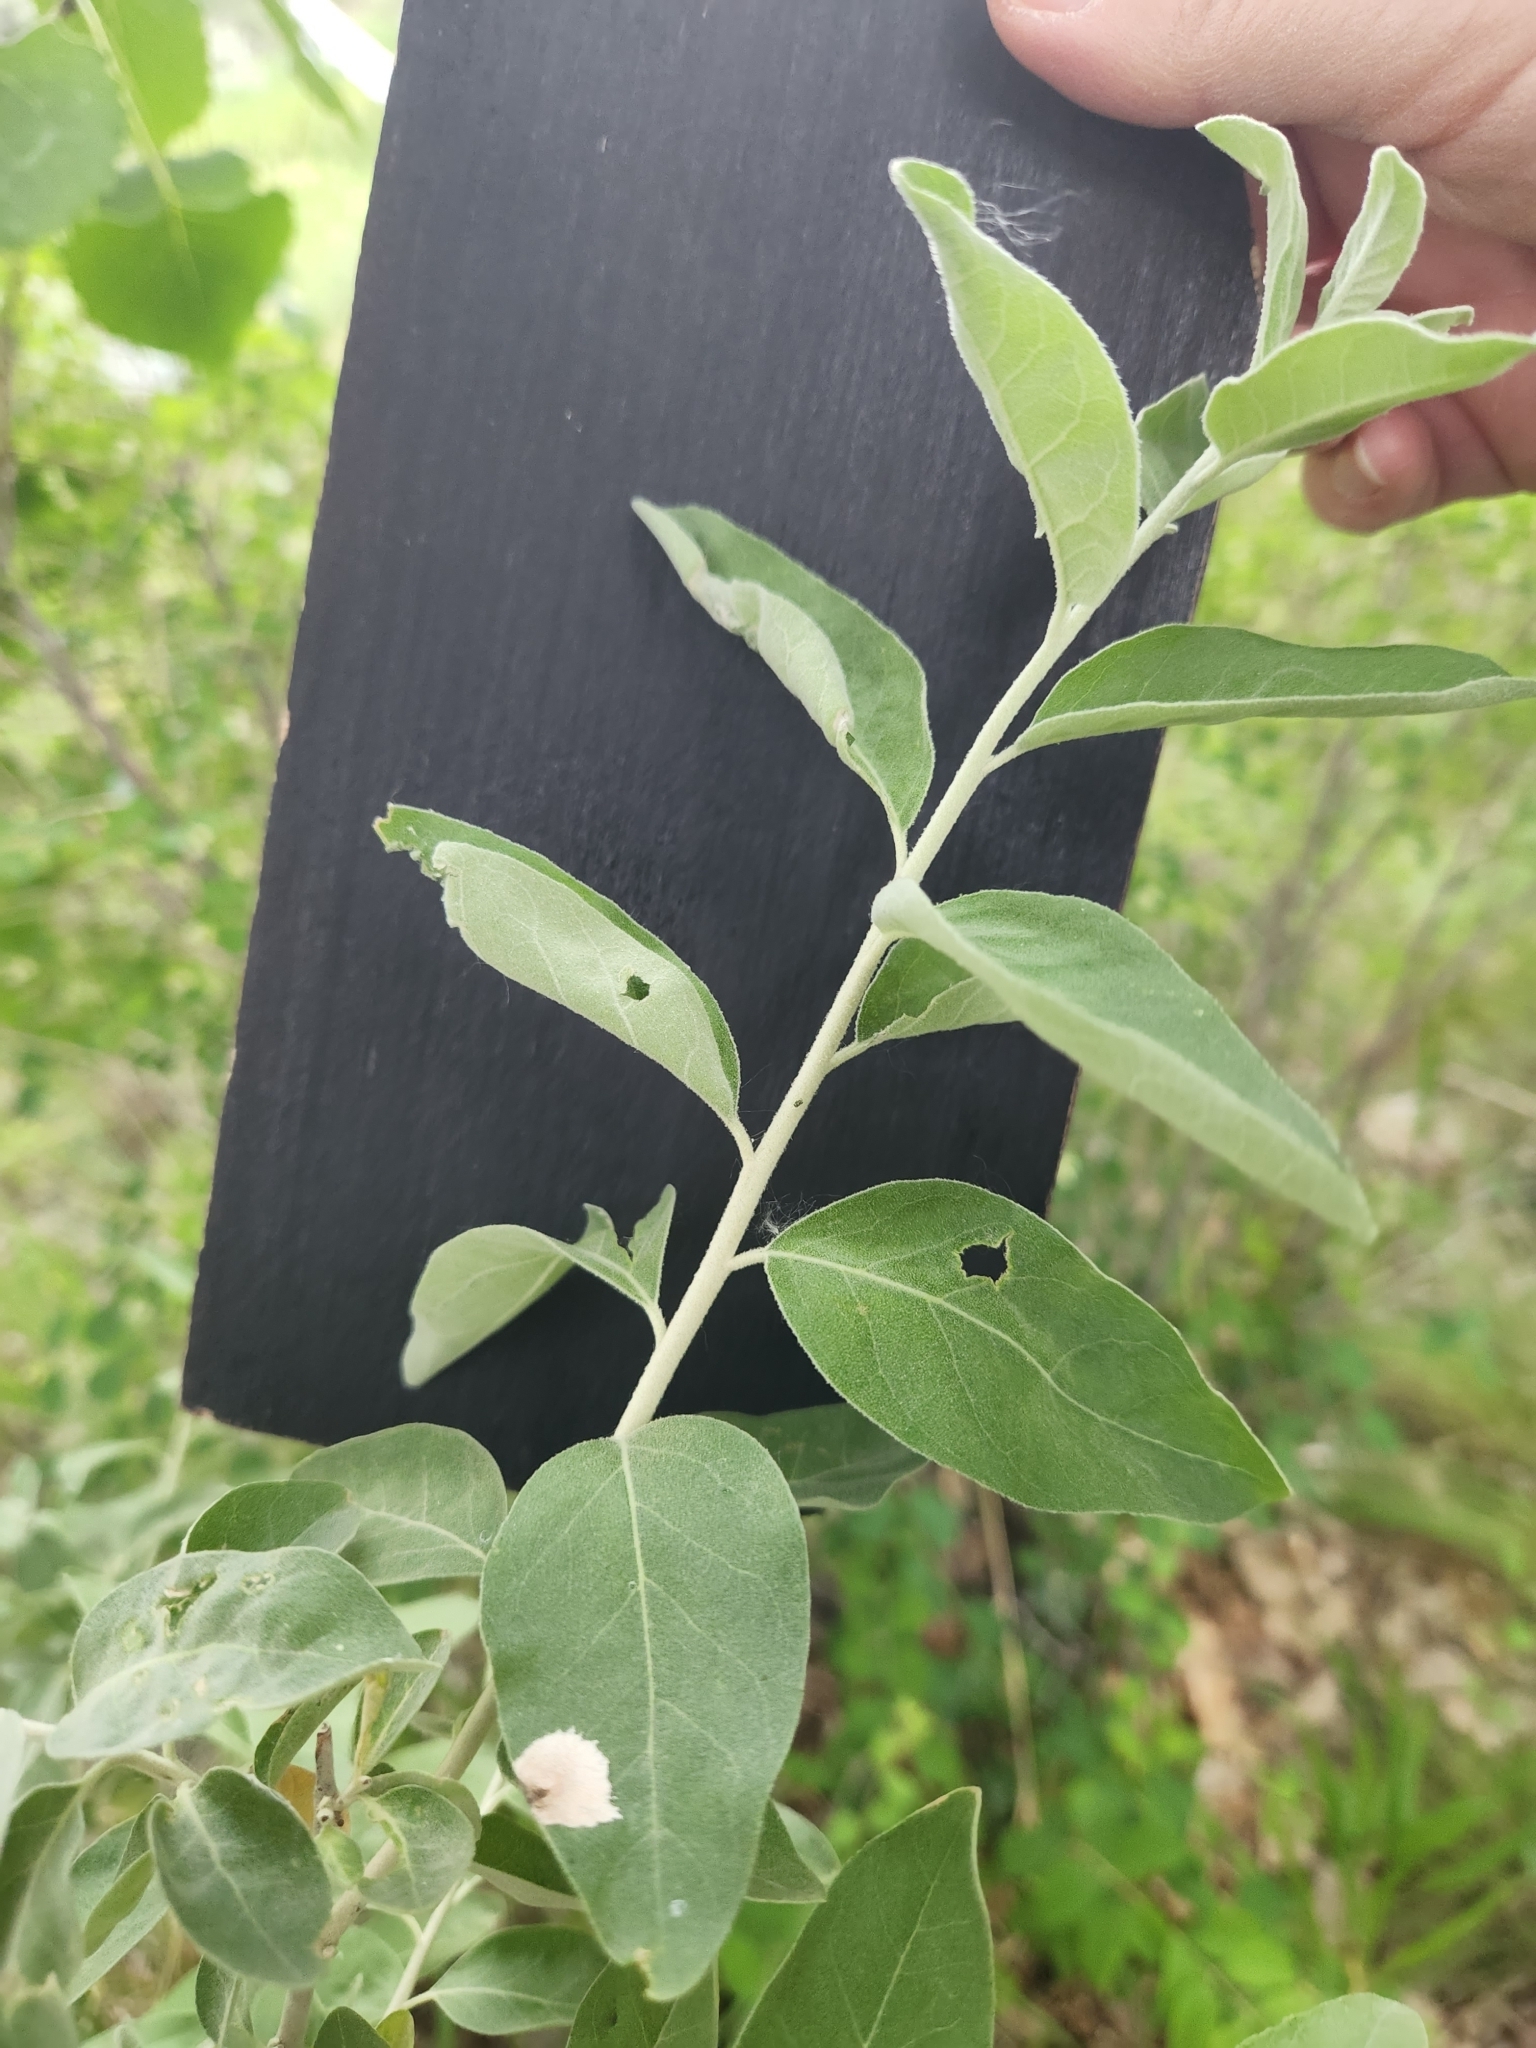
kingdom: Plantae
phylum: Tracheophyta
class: Magnoliopsida
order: Rosales
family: Elaeagnaceae
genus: Elaeagnus
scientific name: Elaeagnus angustifolia
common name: Russian olive
